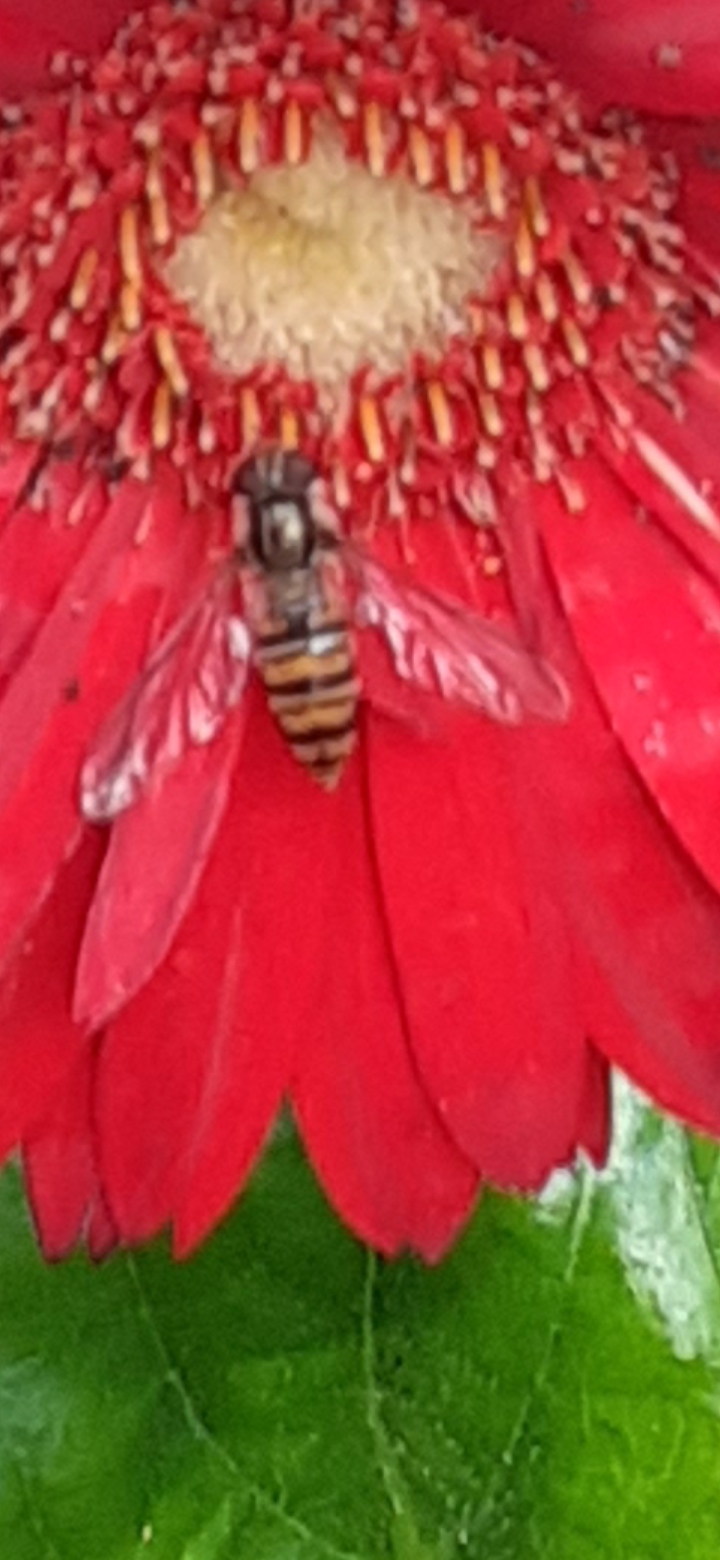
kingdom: Animalia
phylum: Arthropoda
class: Insecta
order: Diptera
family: Syrphidae
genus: Episyrphus
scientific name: Episyrphus balteatus
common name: Marmalade hoverfly
